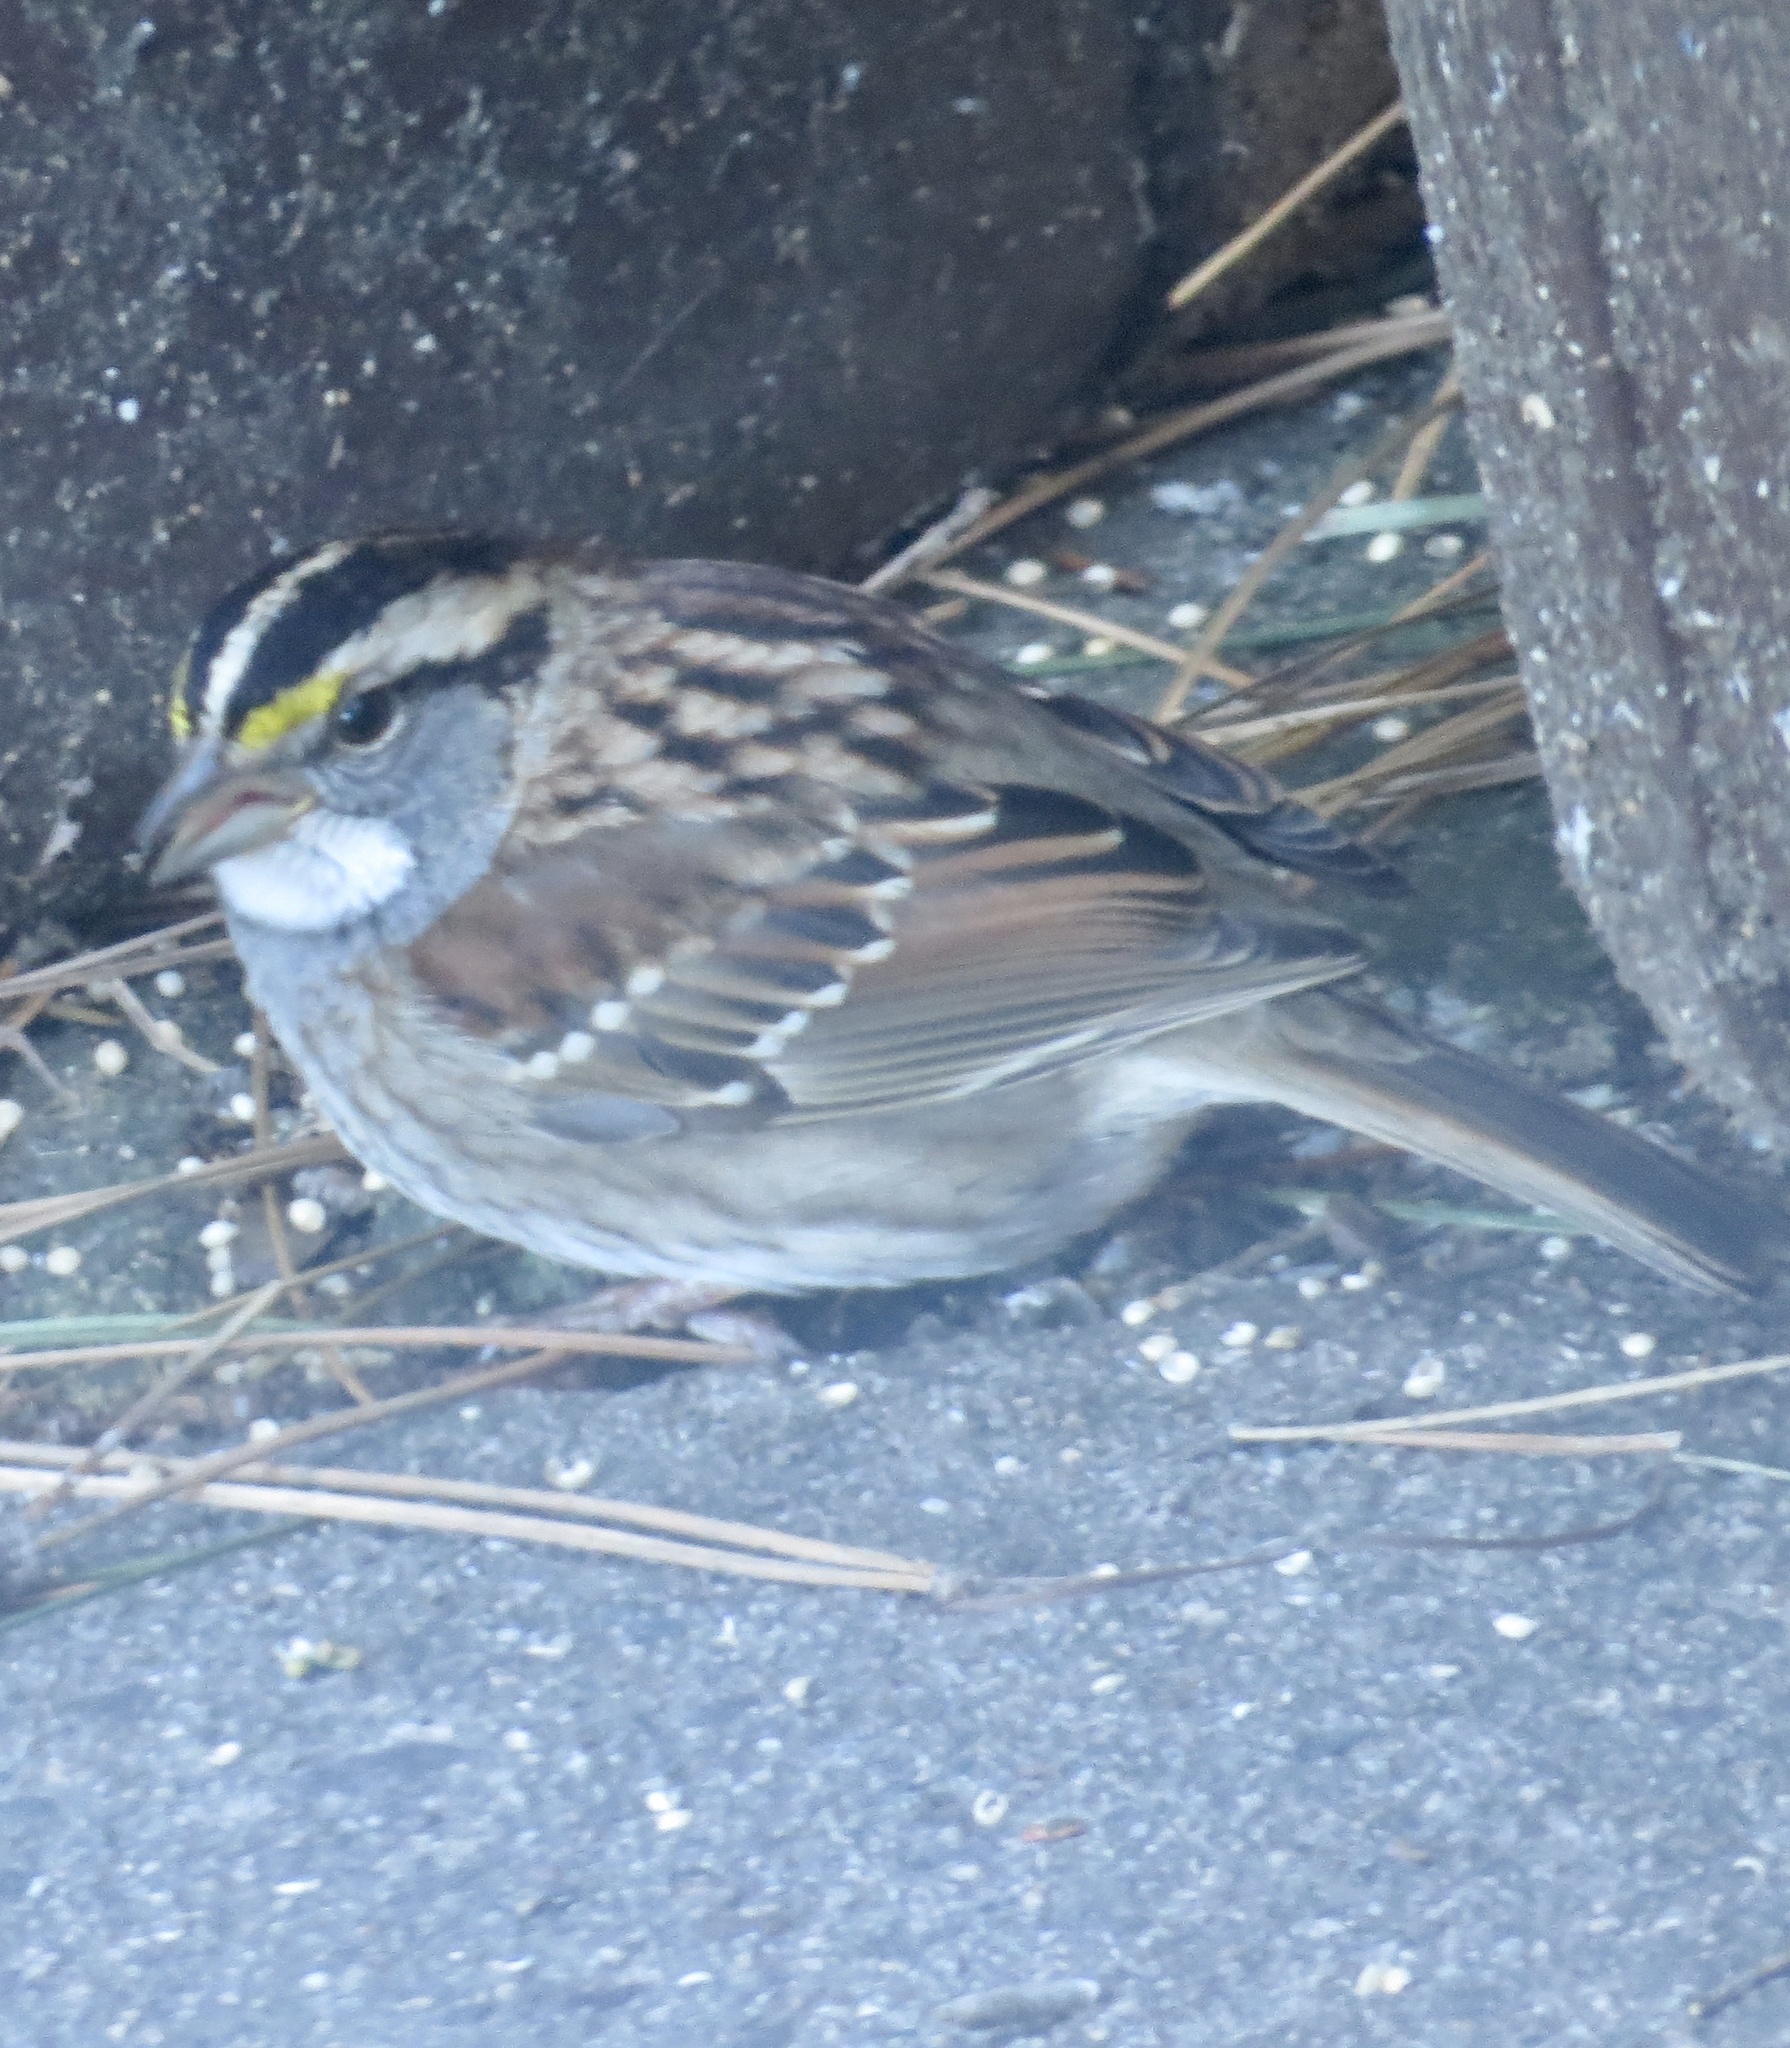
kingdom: Animalia
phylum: Chordata
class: Aves
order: Passeriformes
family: Passerellidae
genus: Zonotrichia
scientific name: Zonotrichia albicollis
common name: White-throated sparrow
